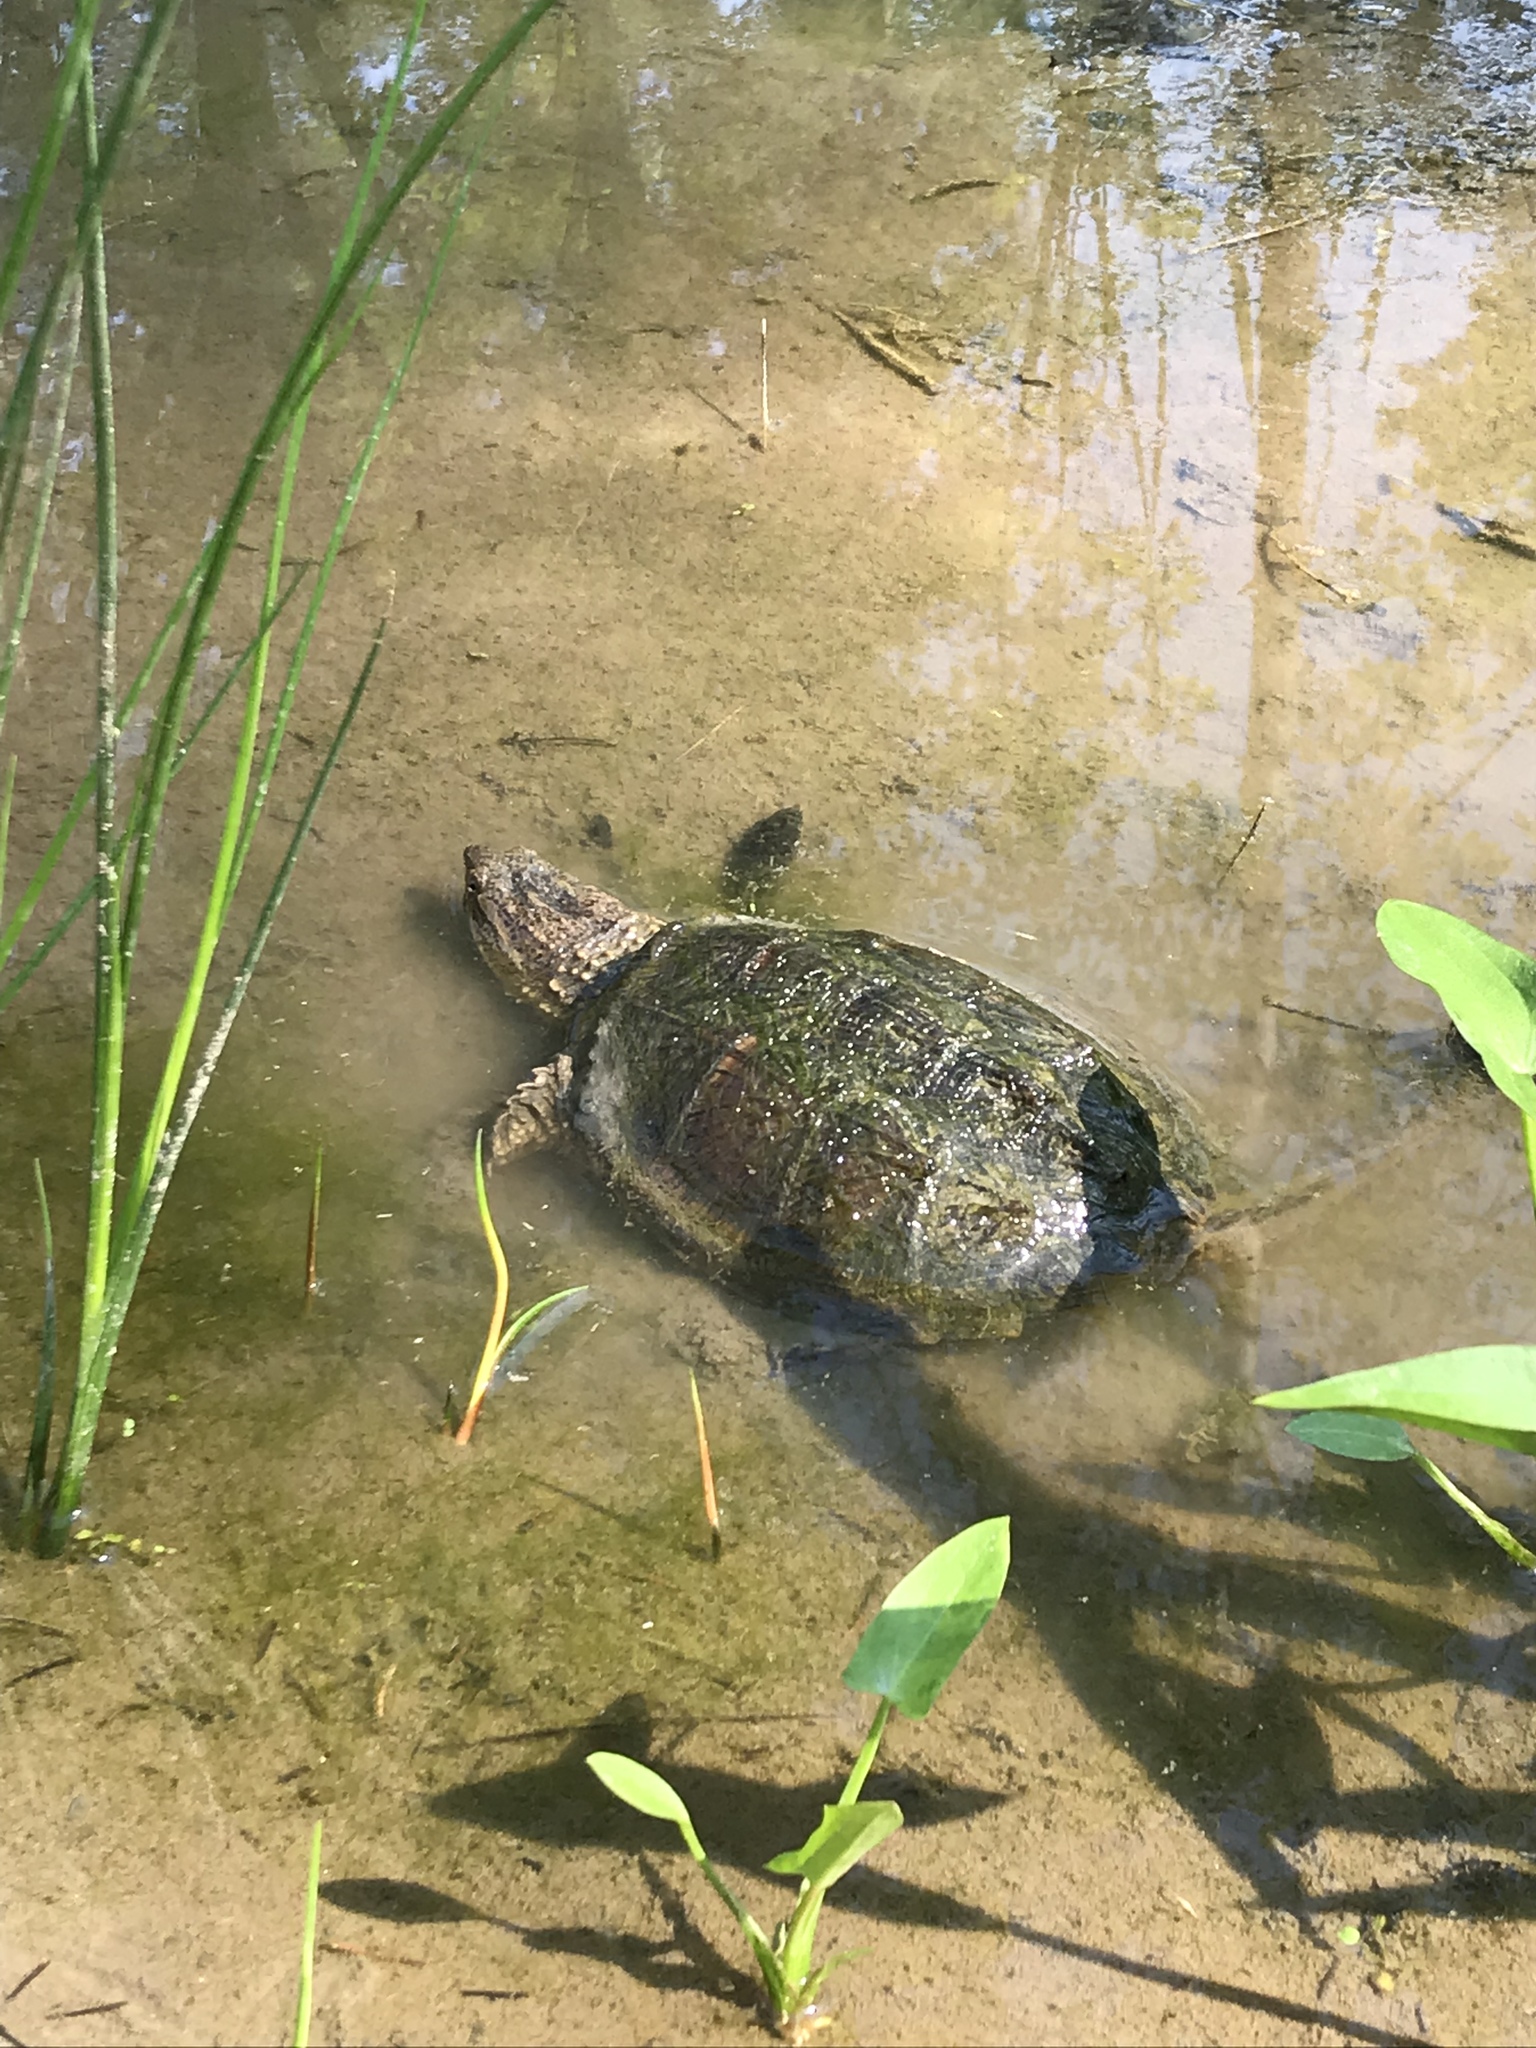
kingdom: Animalia
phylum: Chordata
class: Testudines
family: Chelydridae
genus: Chelydra
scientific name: Chelydra serpentina
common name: Common snapping turtle
